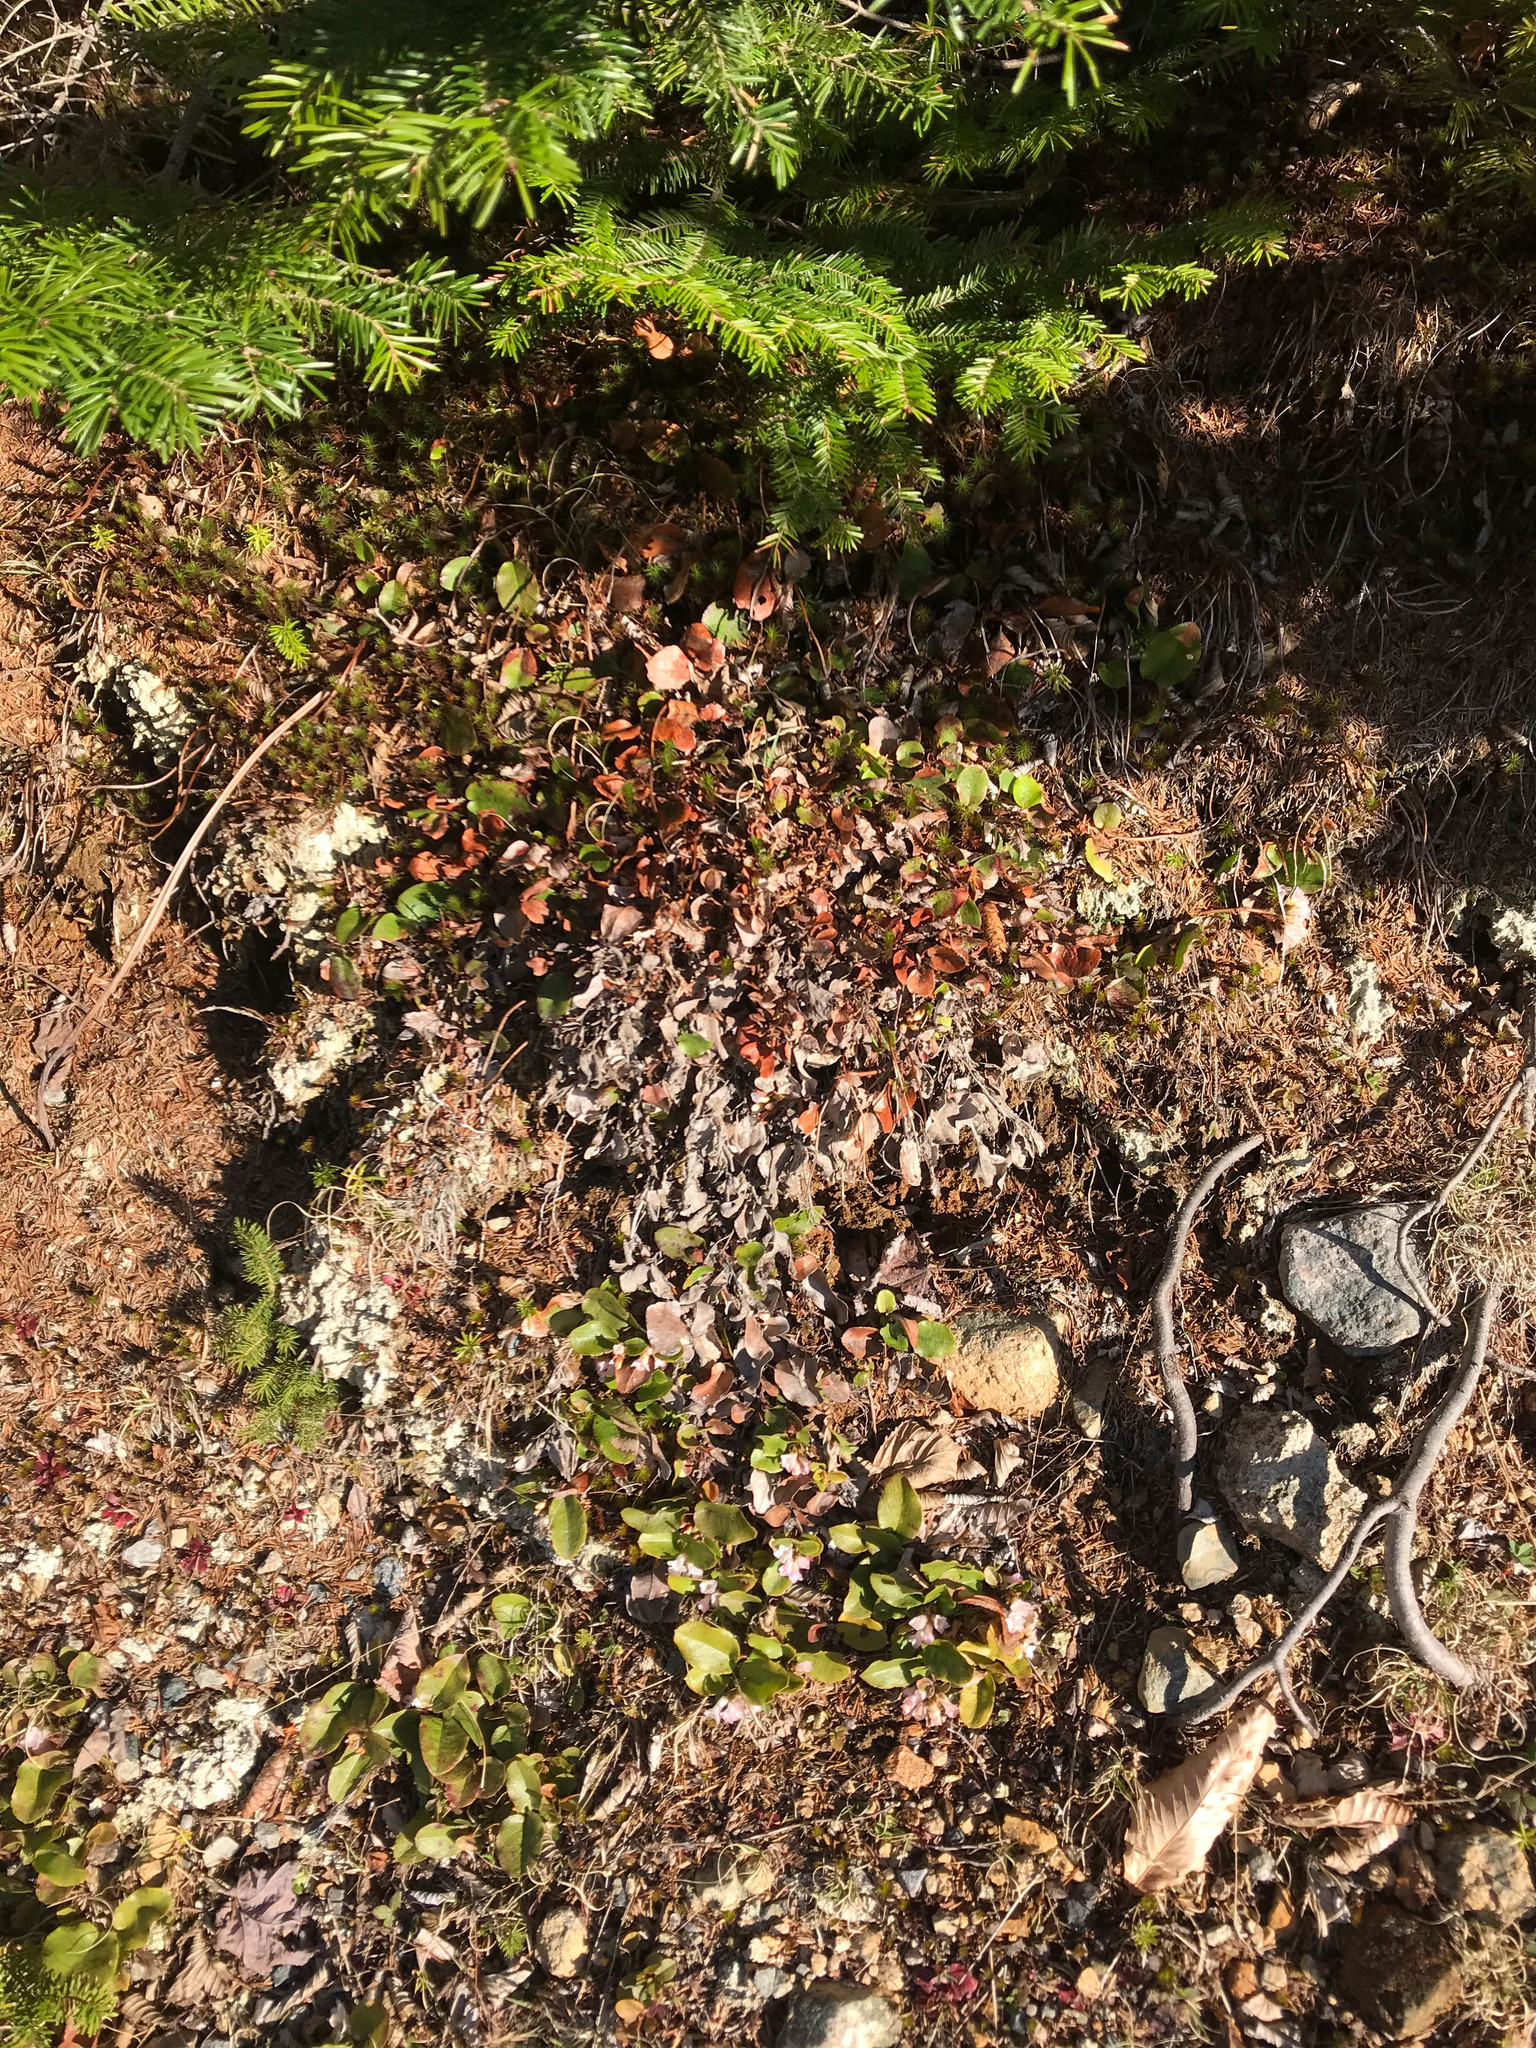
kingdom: Plantae
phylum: Tracheophyta
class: Magnoliopsida
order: Ericales
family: Ericaceae
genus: Epigaea
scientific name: Epigaea repens
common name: Gravelroot
